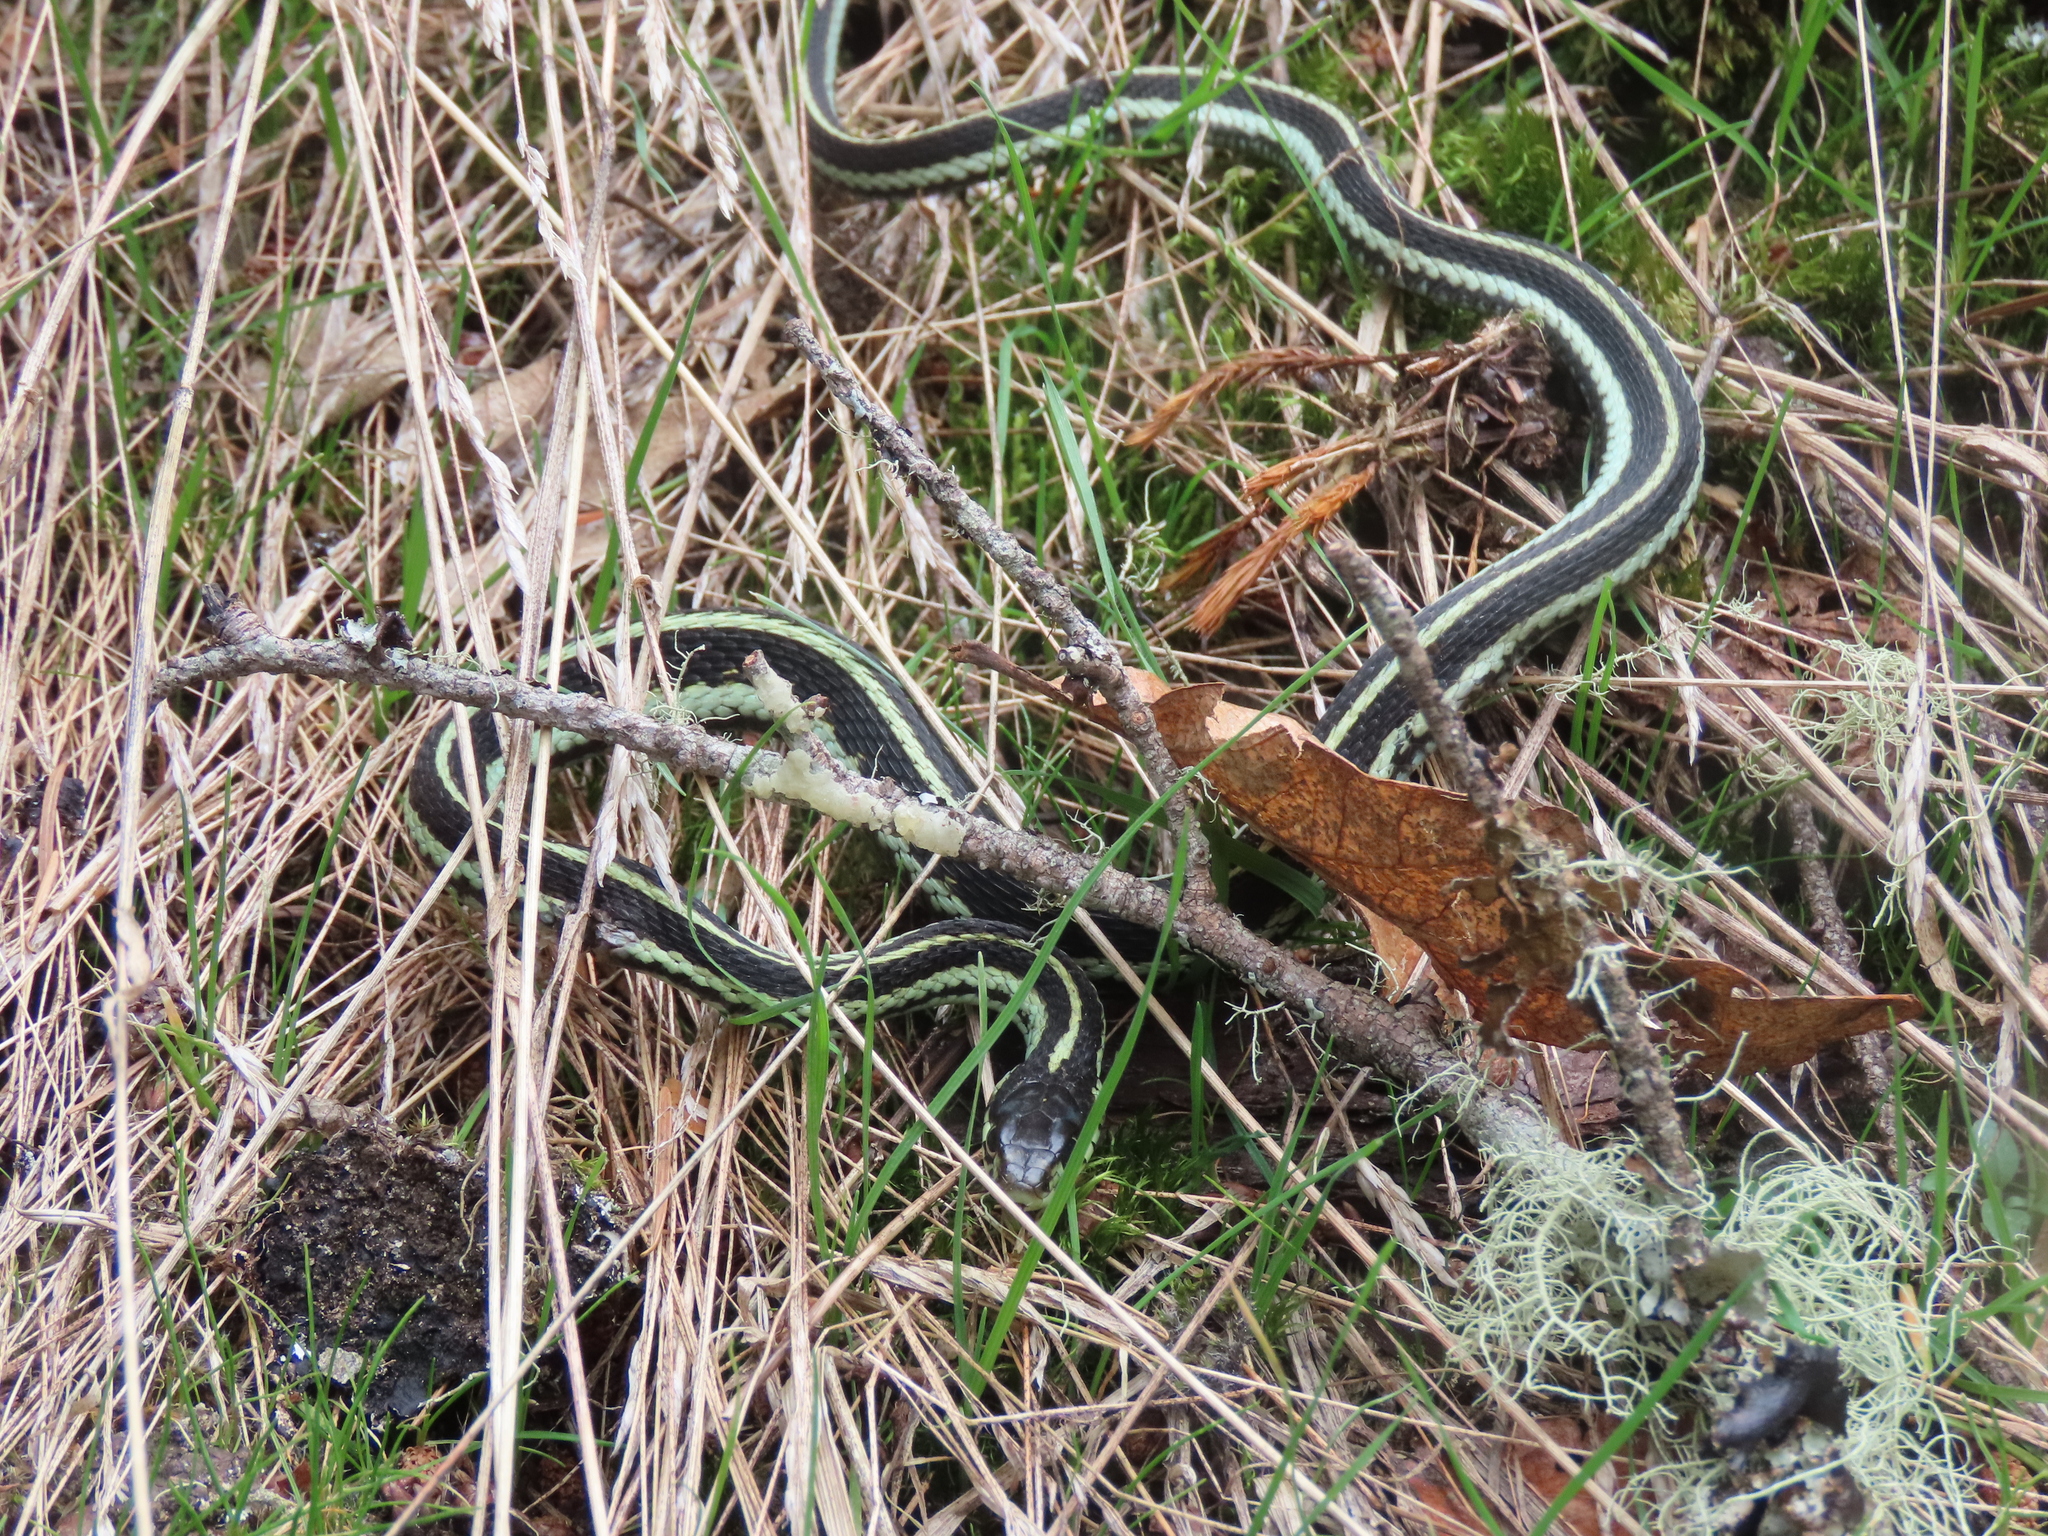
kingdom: Animalia
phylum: Chordata
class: Squamata
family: Colubridae
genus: Thamnophis
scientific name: Thamnophis sirtalis
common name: Common garter snake
